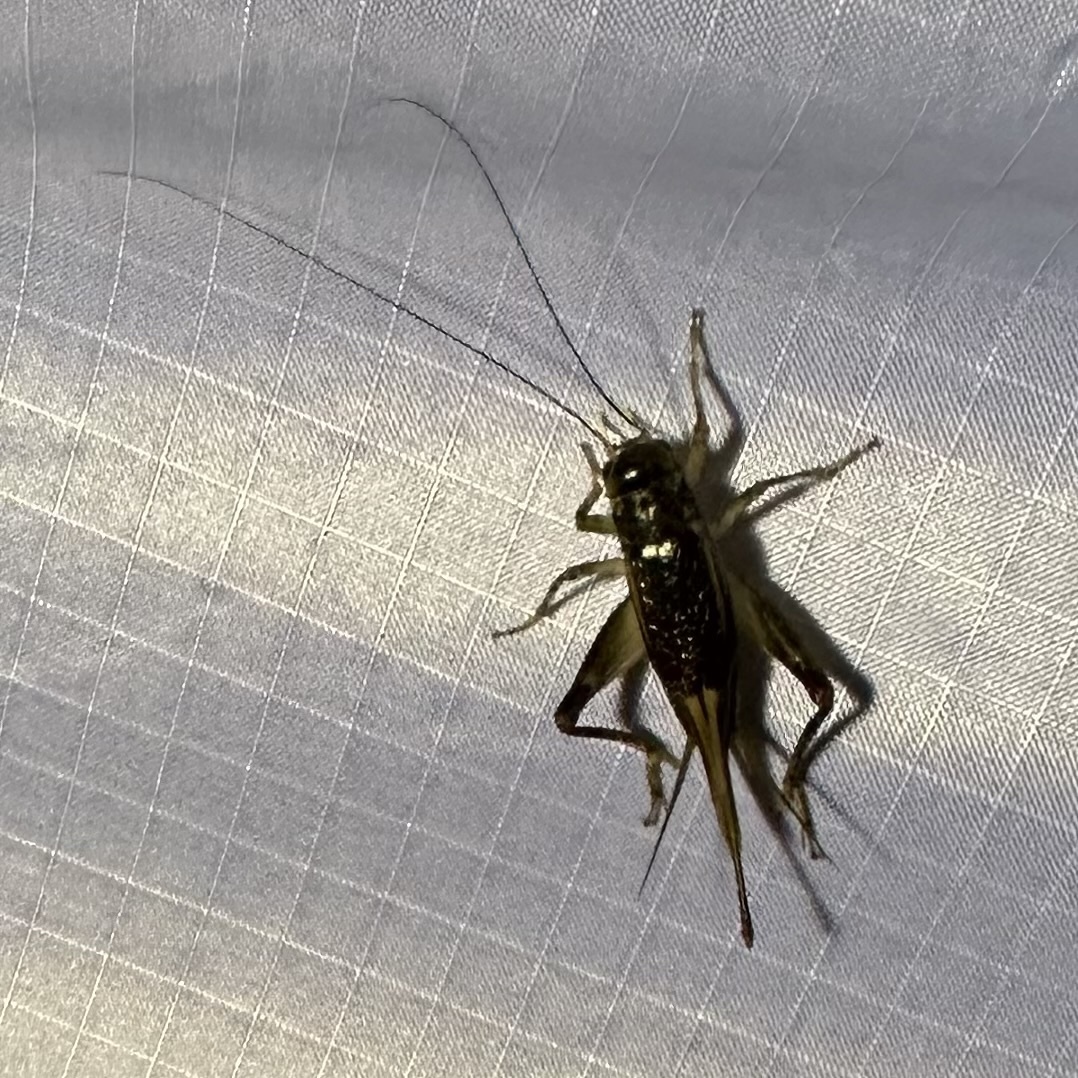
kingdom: Animalia
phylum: Arthropoda
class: Insecta
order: Orthoptera
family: Gryllidae
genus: Velarifictorus
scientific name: Velarifictorus micado
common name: Japanese burrowing cricket
